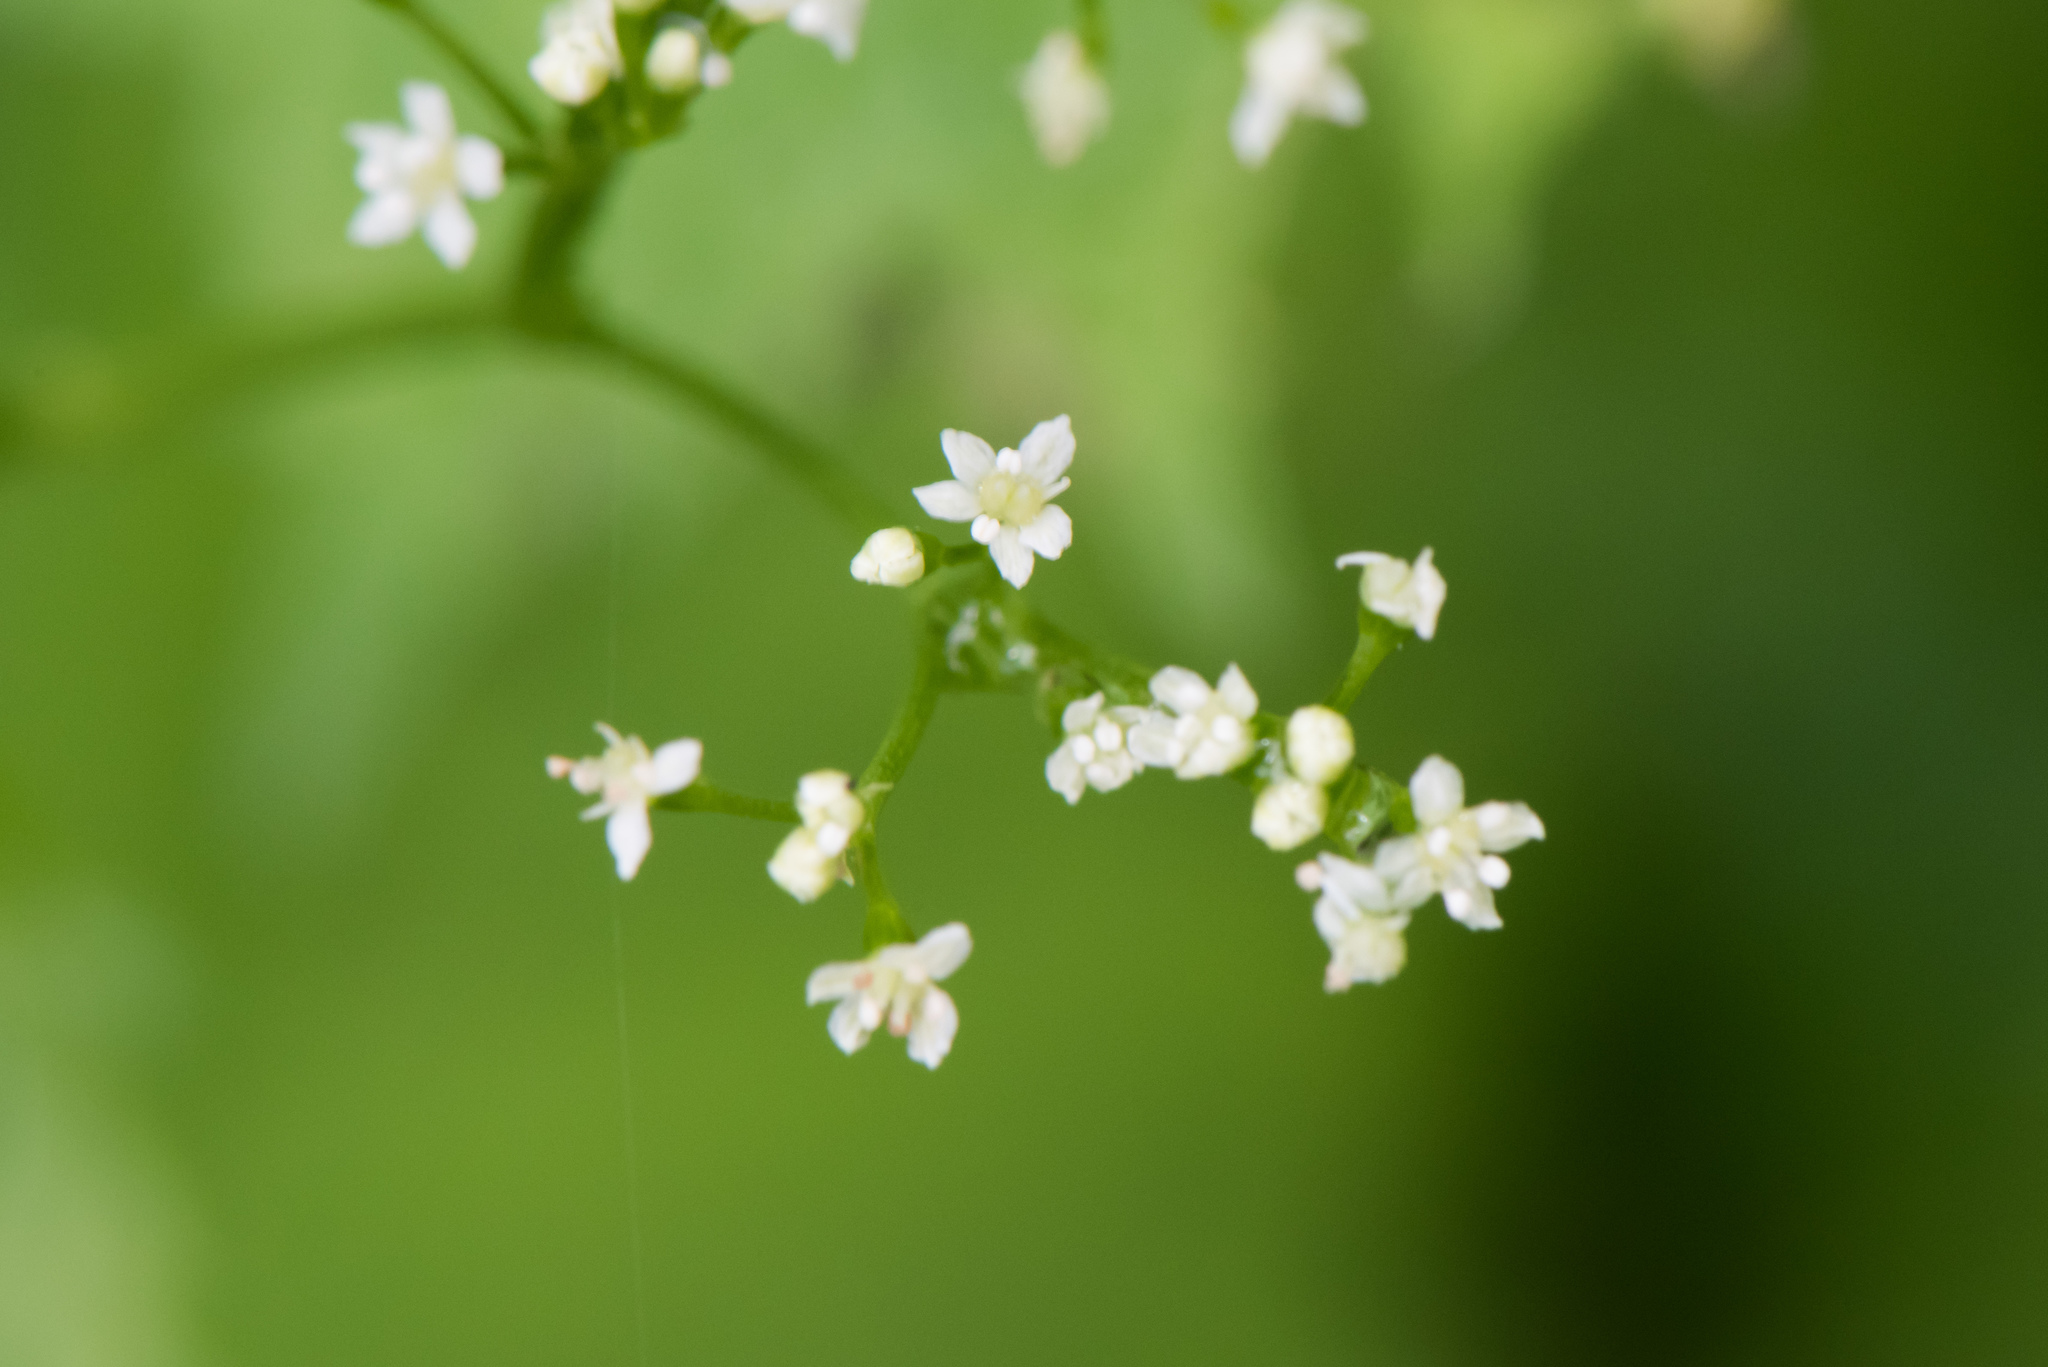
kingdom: Plantae
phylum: Tracheophyta
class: Magnoliopsida
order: Apiales
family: Apiaceae
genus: Cryptotaenia
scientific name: Cryptotaenia japonica
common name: Japanese cryptotaenia
